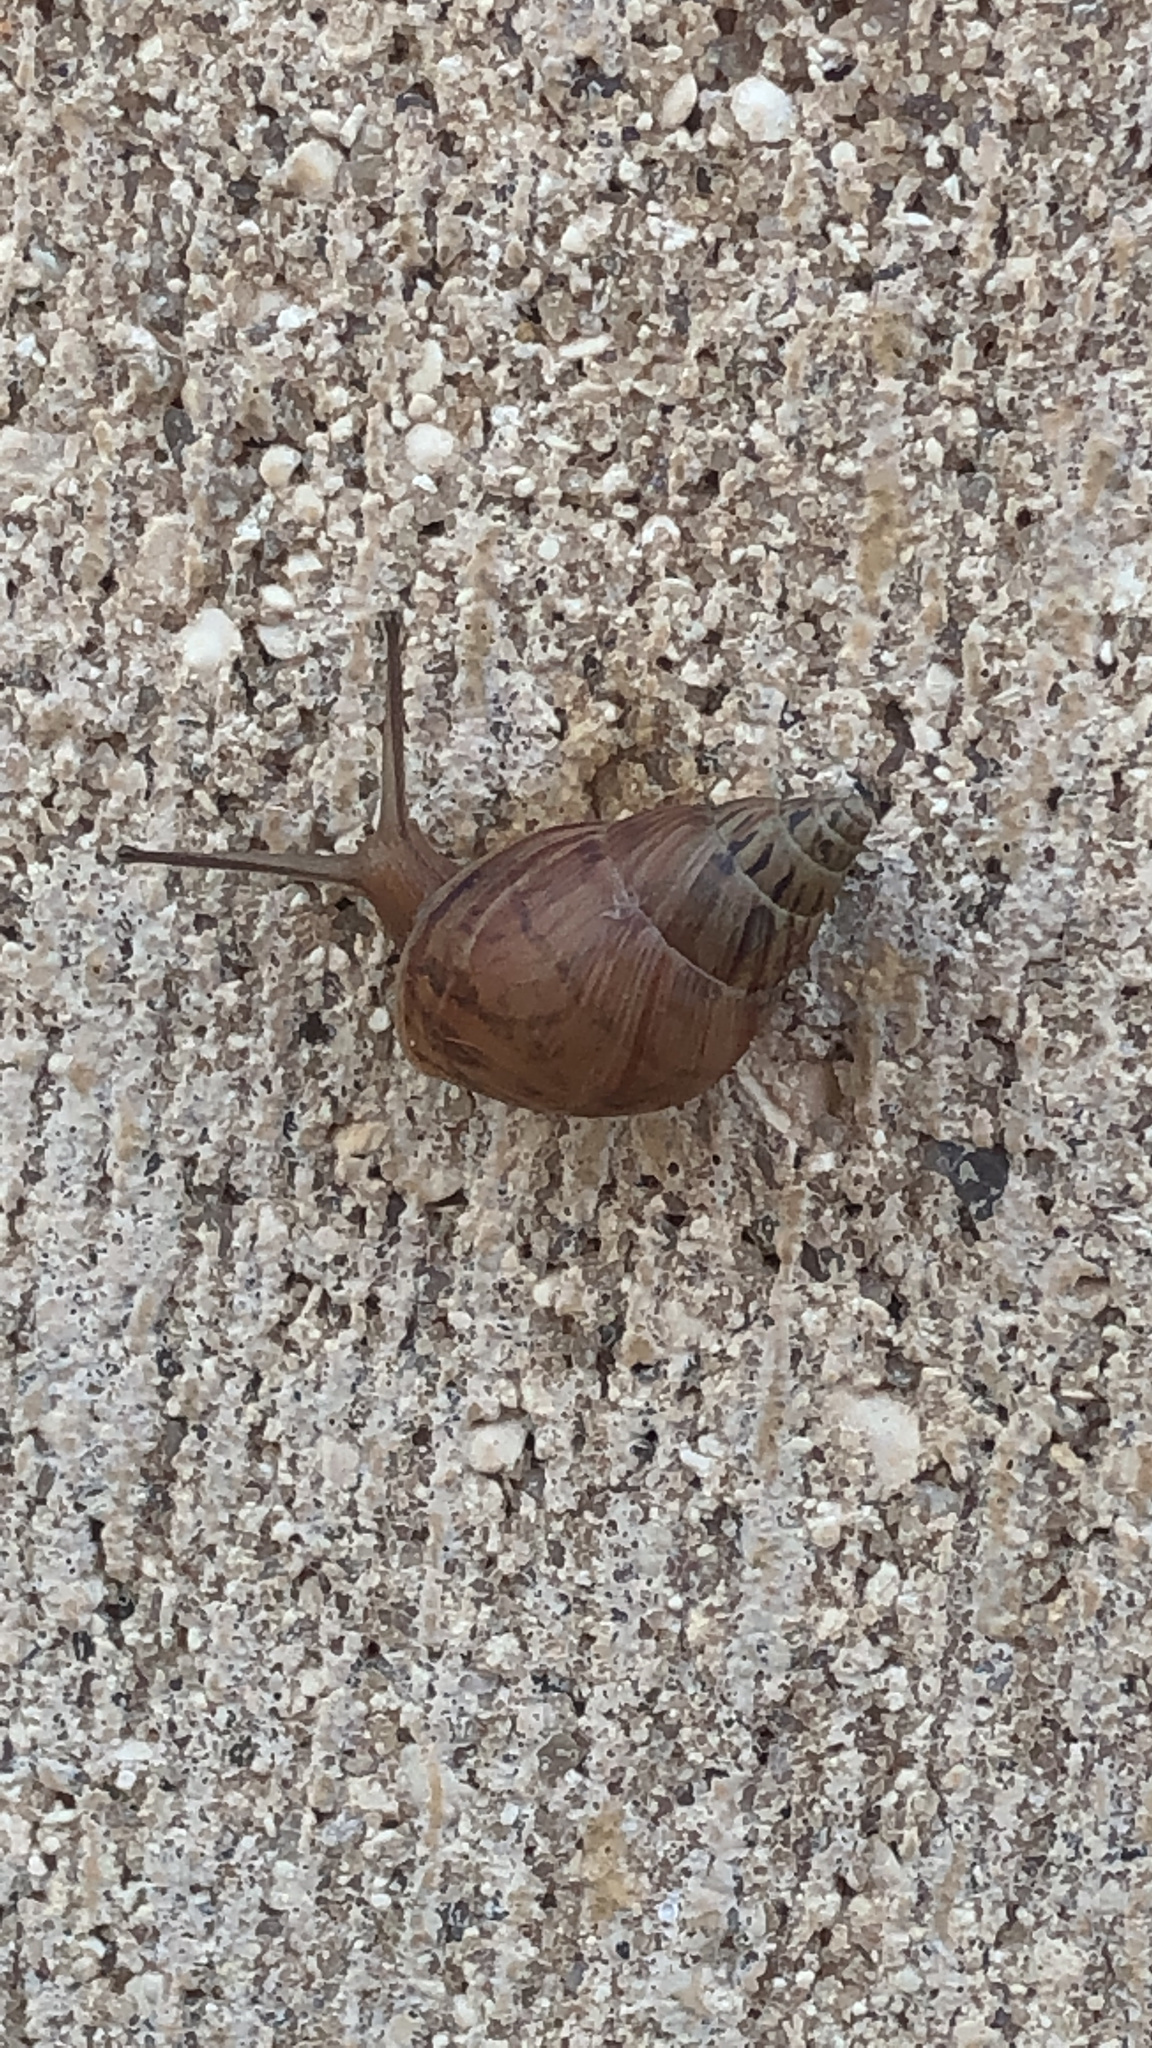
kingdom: Animalia
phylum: Mollusca
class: Gastropoda
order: Stylommatophora
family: Bulimulidae
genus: Bulimulus
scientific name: Bulimulus bonariensis
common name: Snail
